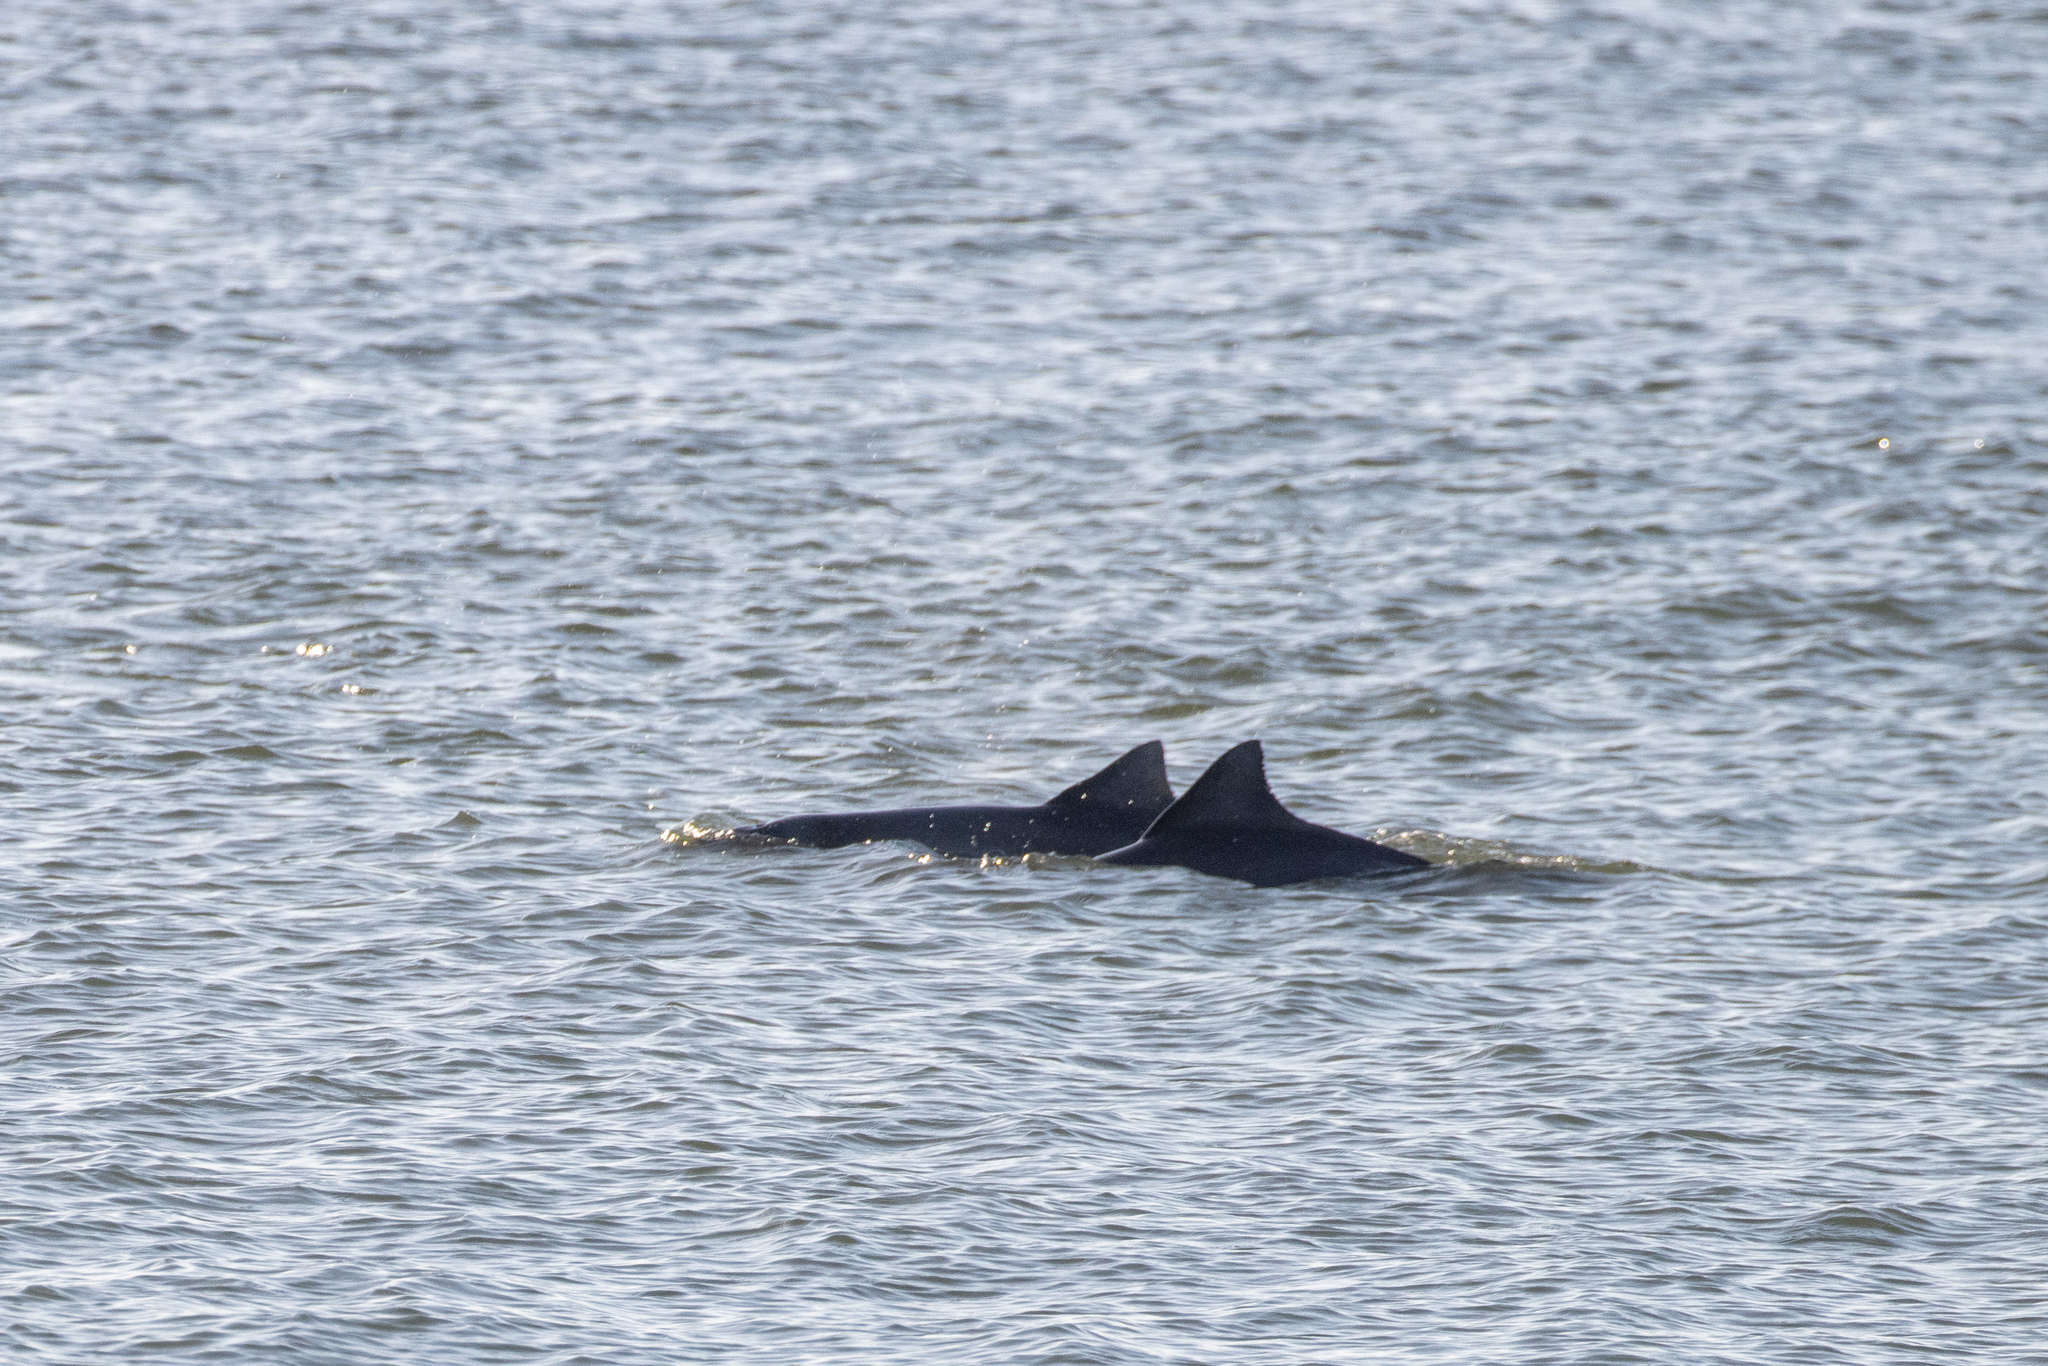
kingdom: Animalia
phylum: Chordata
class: Mammalia
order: Cetacea
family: Delphinidae
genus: Sotalia
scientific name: Sotalia guianensis
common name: Guiana dolphin
